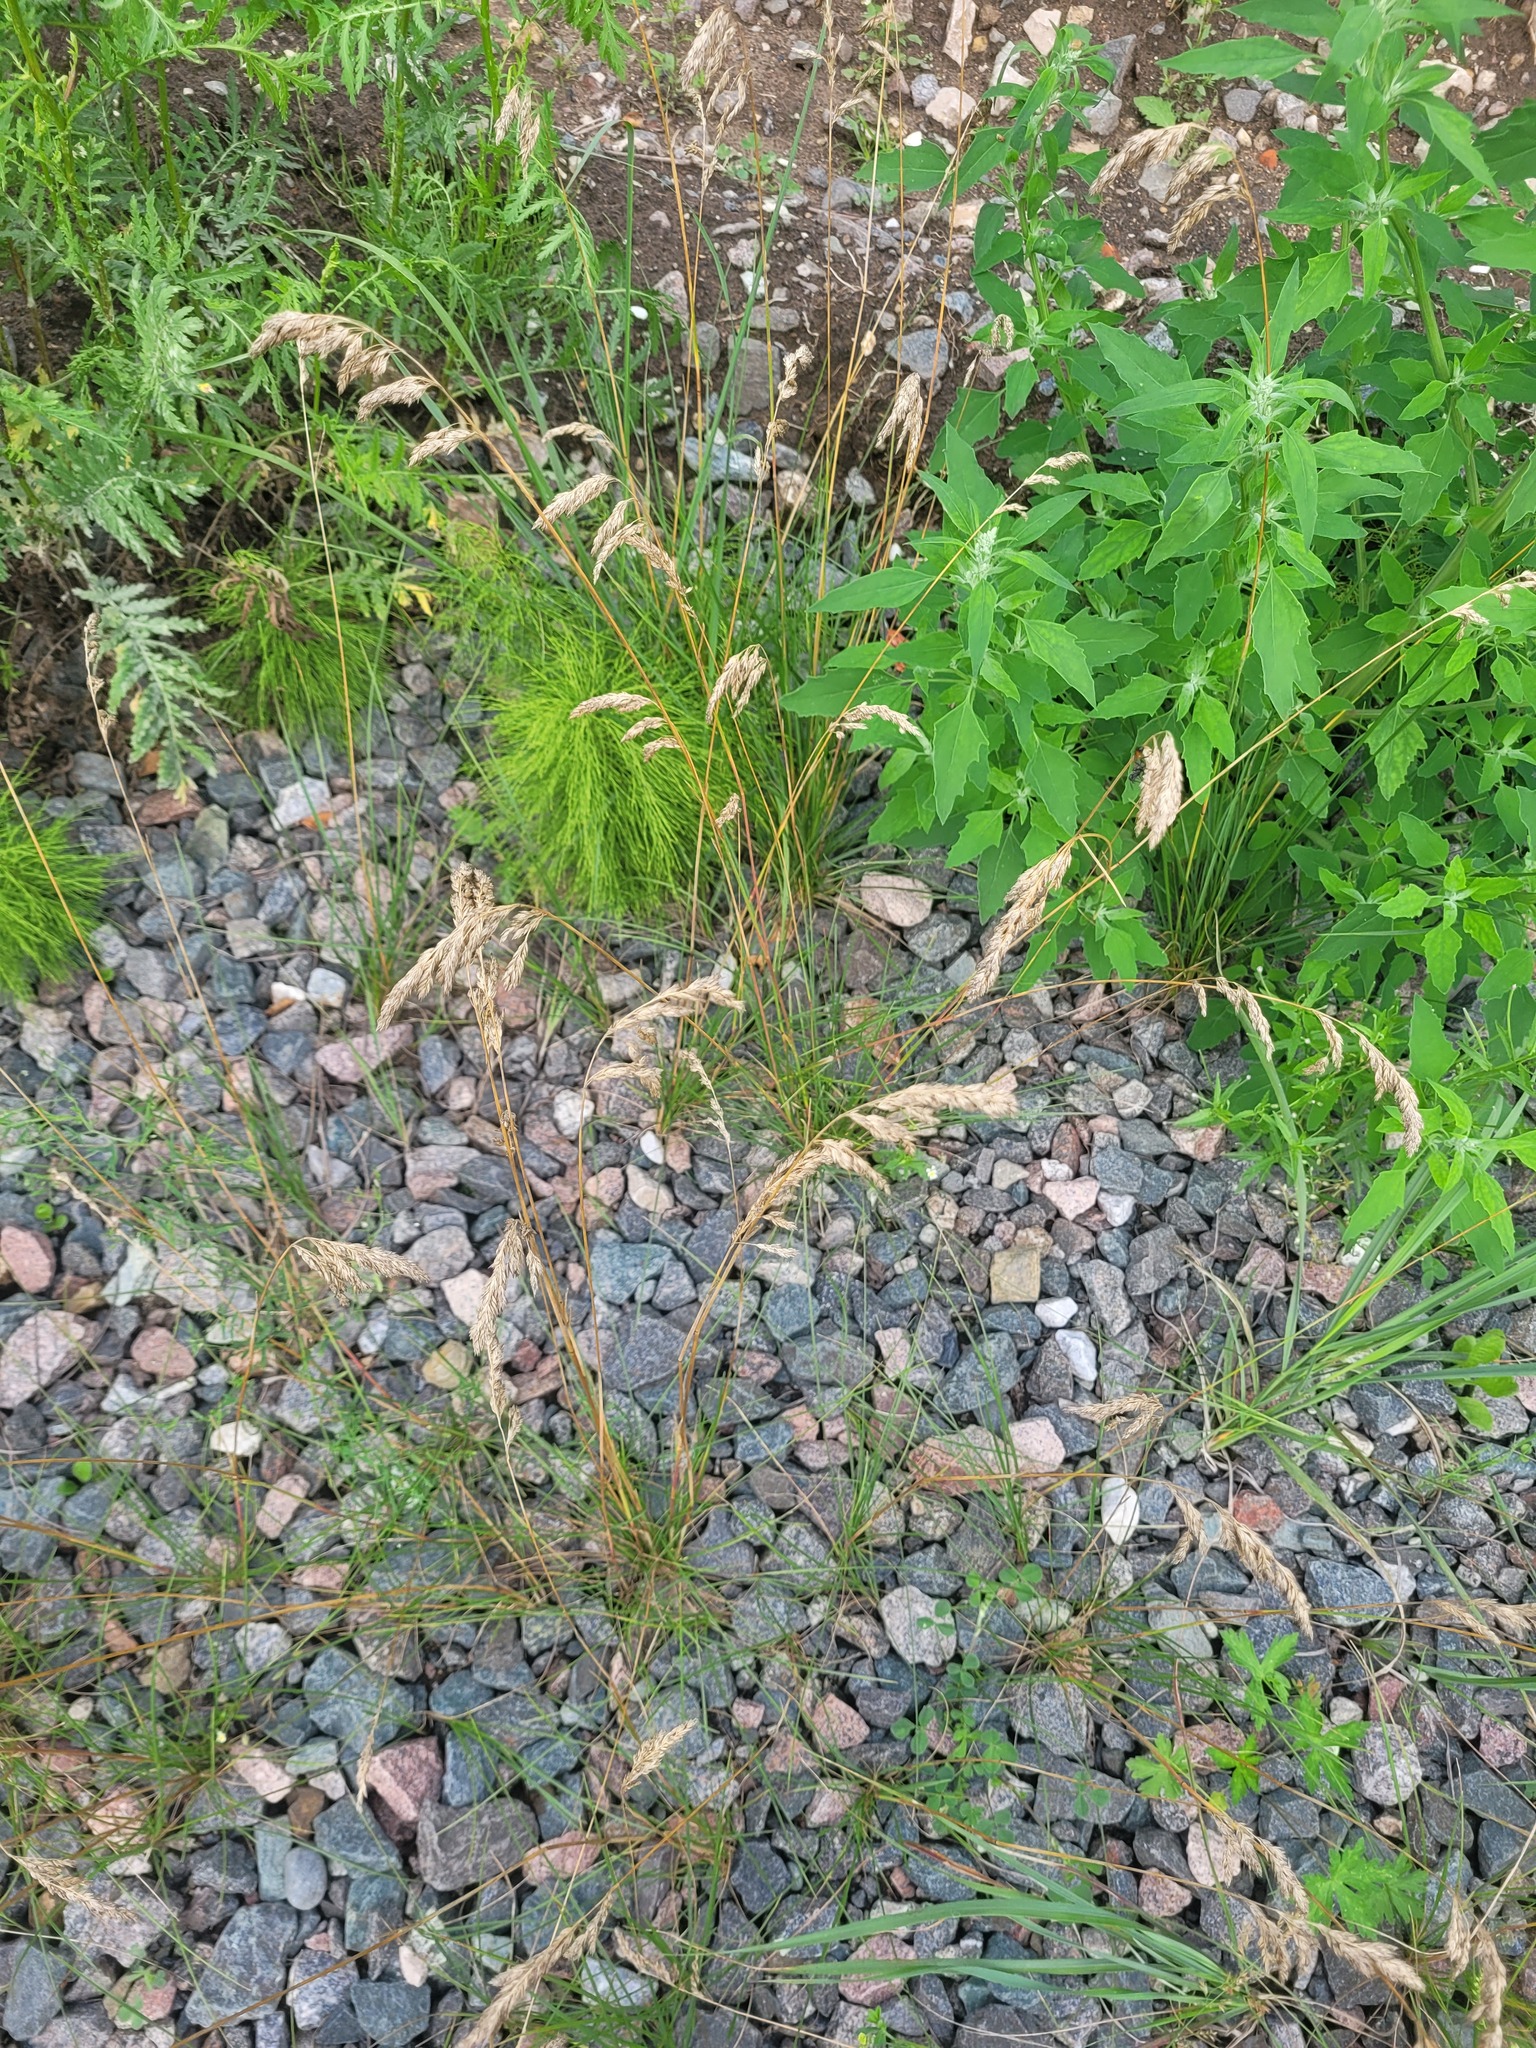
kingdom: Plantae
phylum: Tracheophyta
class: Liliopsida
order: Poales
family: Poaceae
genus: Poa
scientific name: Poa angustifolia
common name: Narrow-leaved meadow-grass
